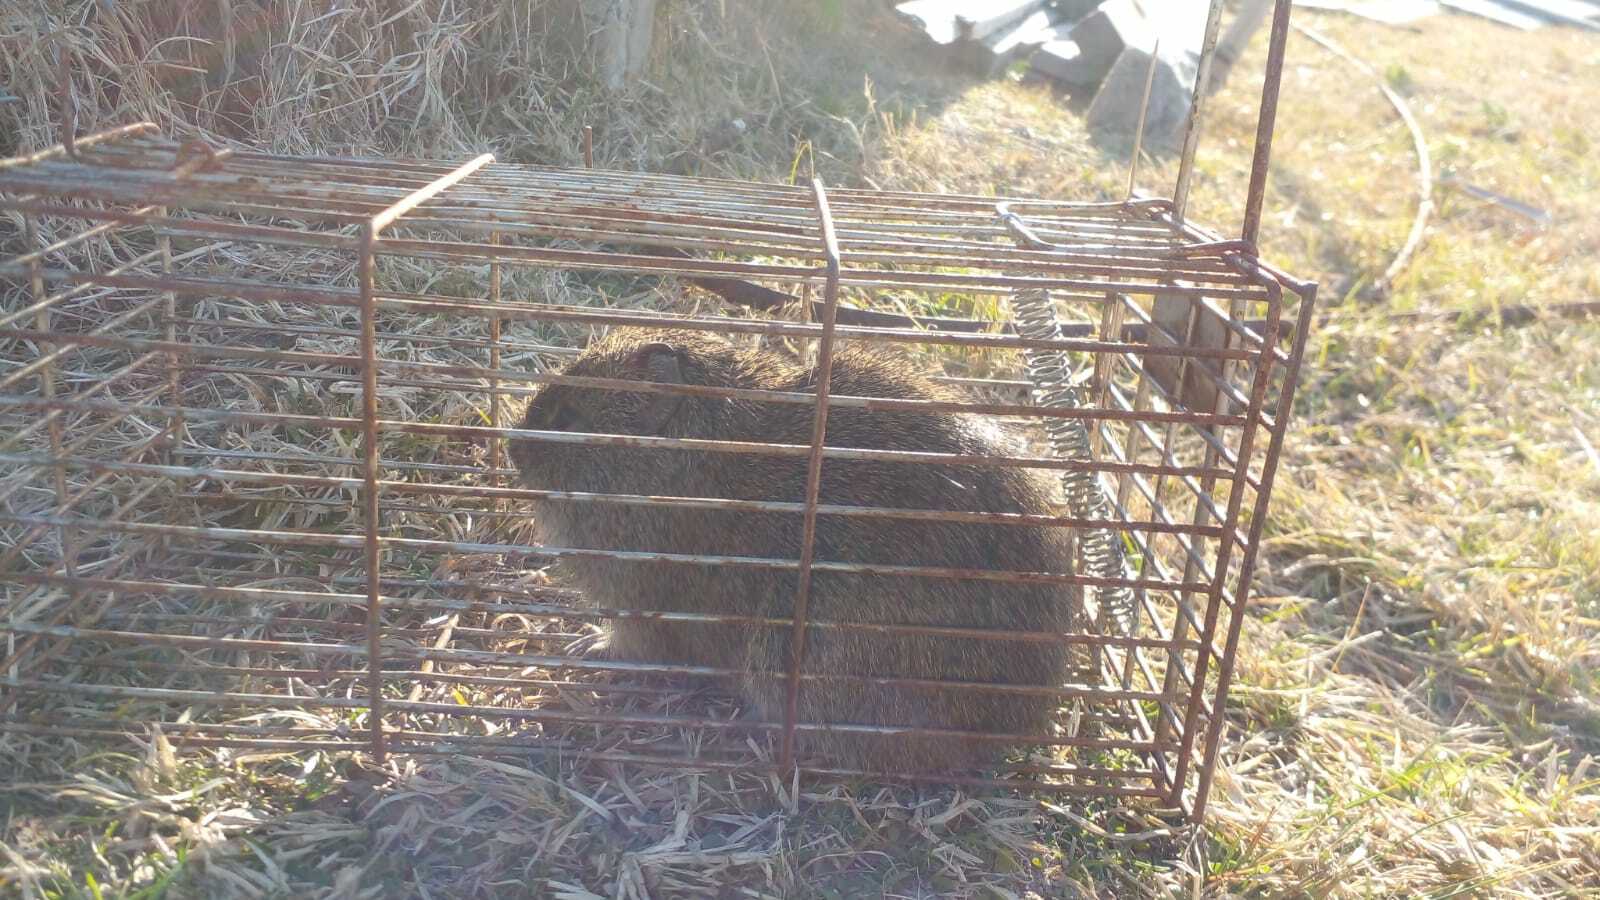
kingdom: Animalia
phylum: Chordata
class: Mammalia
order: Rodentia
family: Caviidae
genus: Cavia
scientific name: Cavia aperea
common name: Brazilian guinea pig
